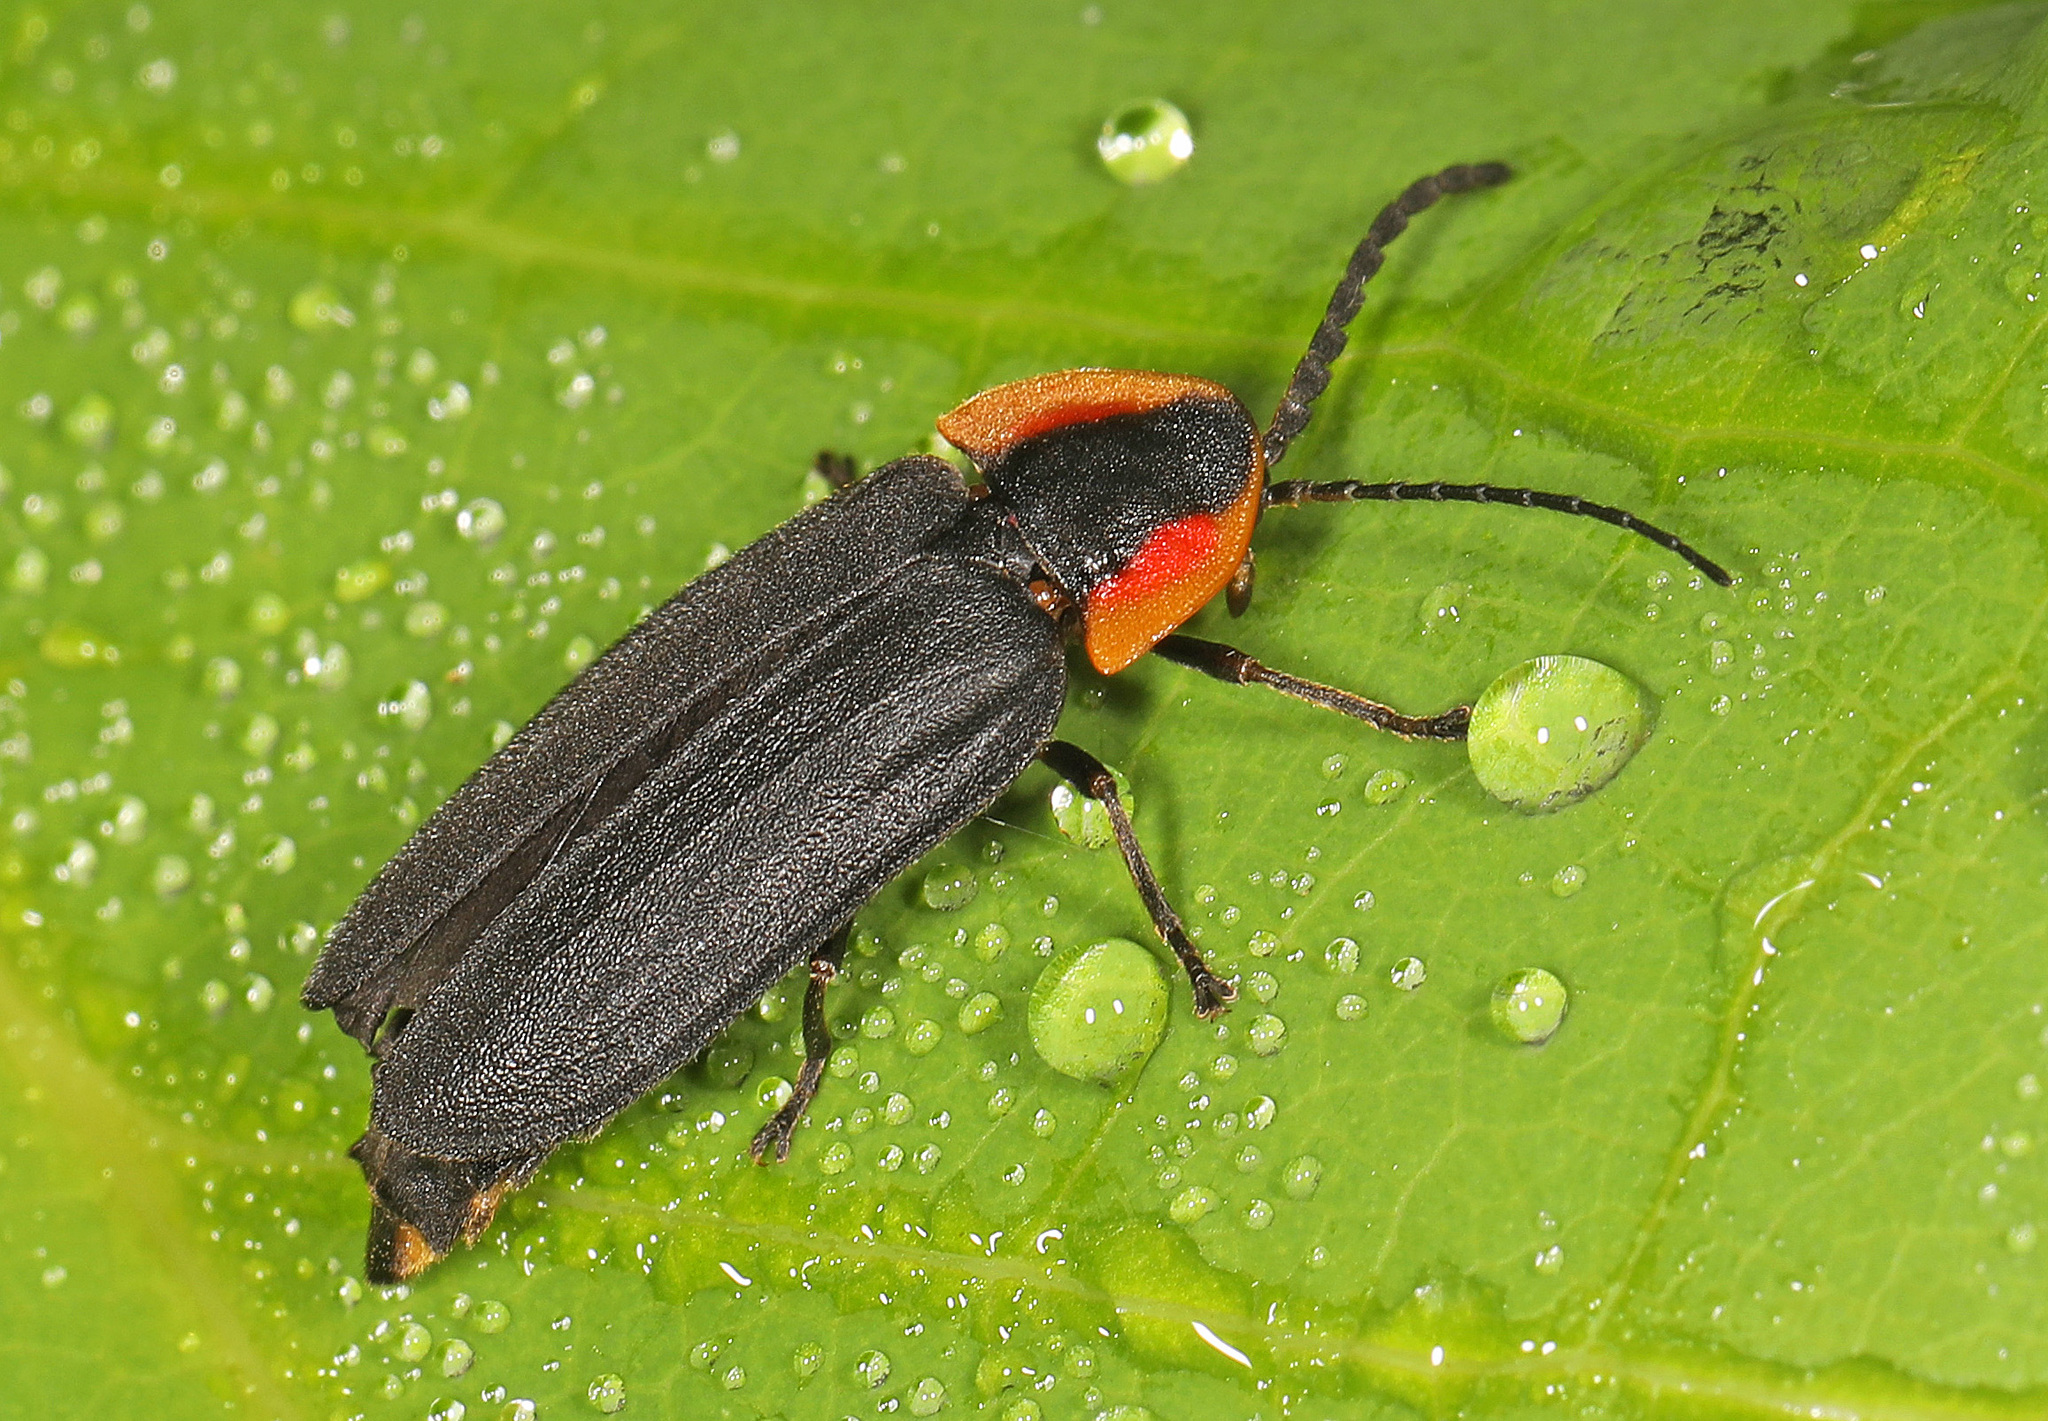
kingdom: Animalia
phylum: Arthropoda
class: Insecta
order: Coleoptera
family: Lampyridae
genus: Lucidota
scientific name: Lucidota atra
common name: Black firefly
